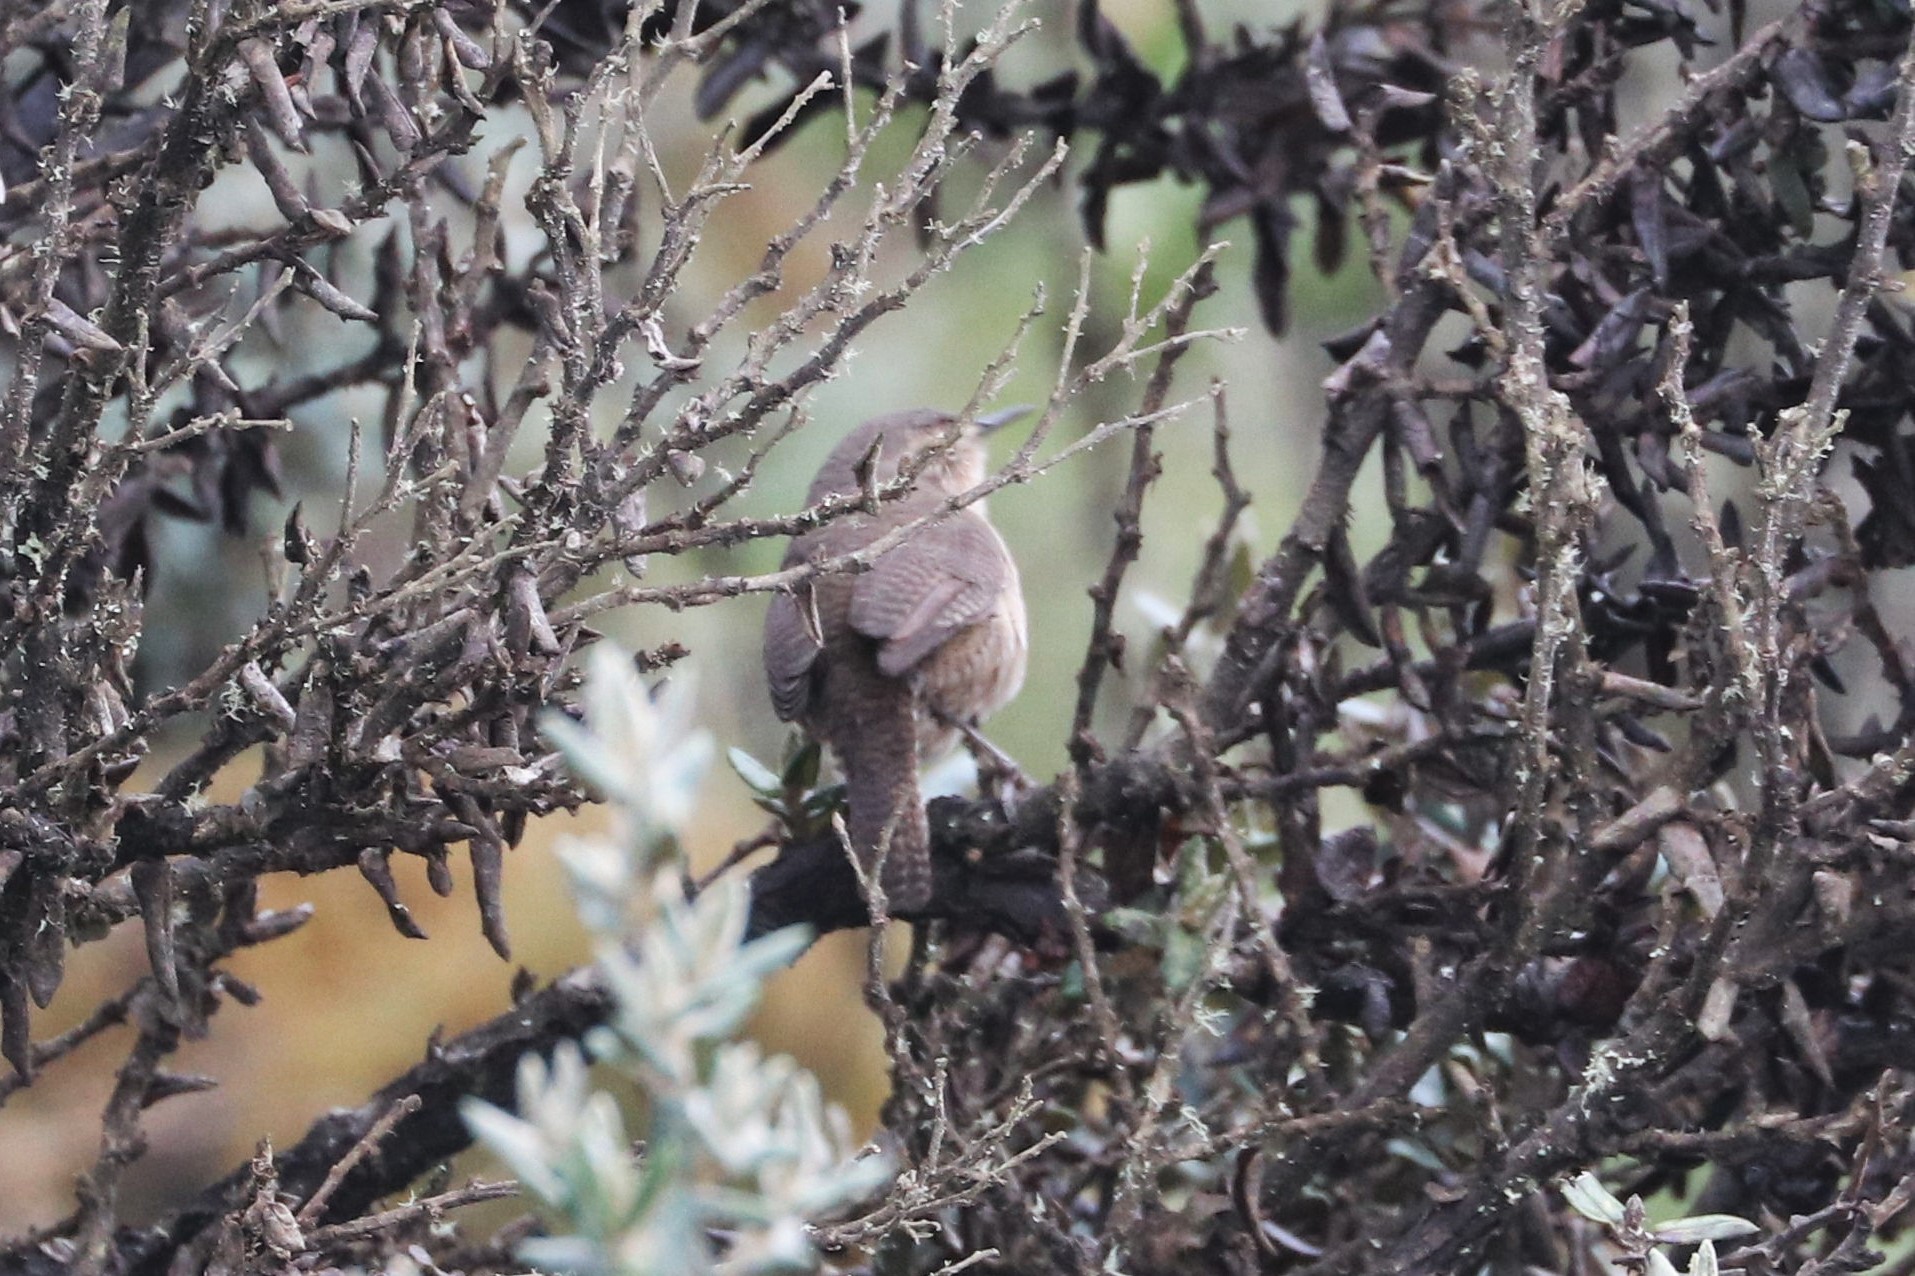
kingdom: Animalia
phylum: Chordata
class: Aves
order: Passeriformes
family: Troglodytidae
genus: Troglodytes
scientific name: Troglodytes aedon
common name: House wren
